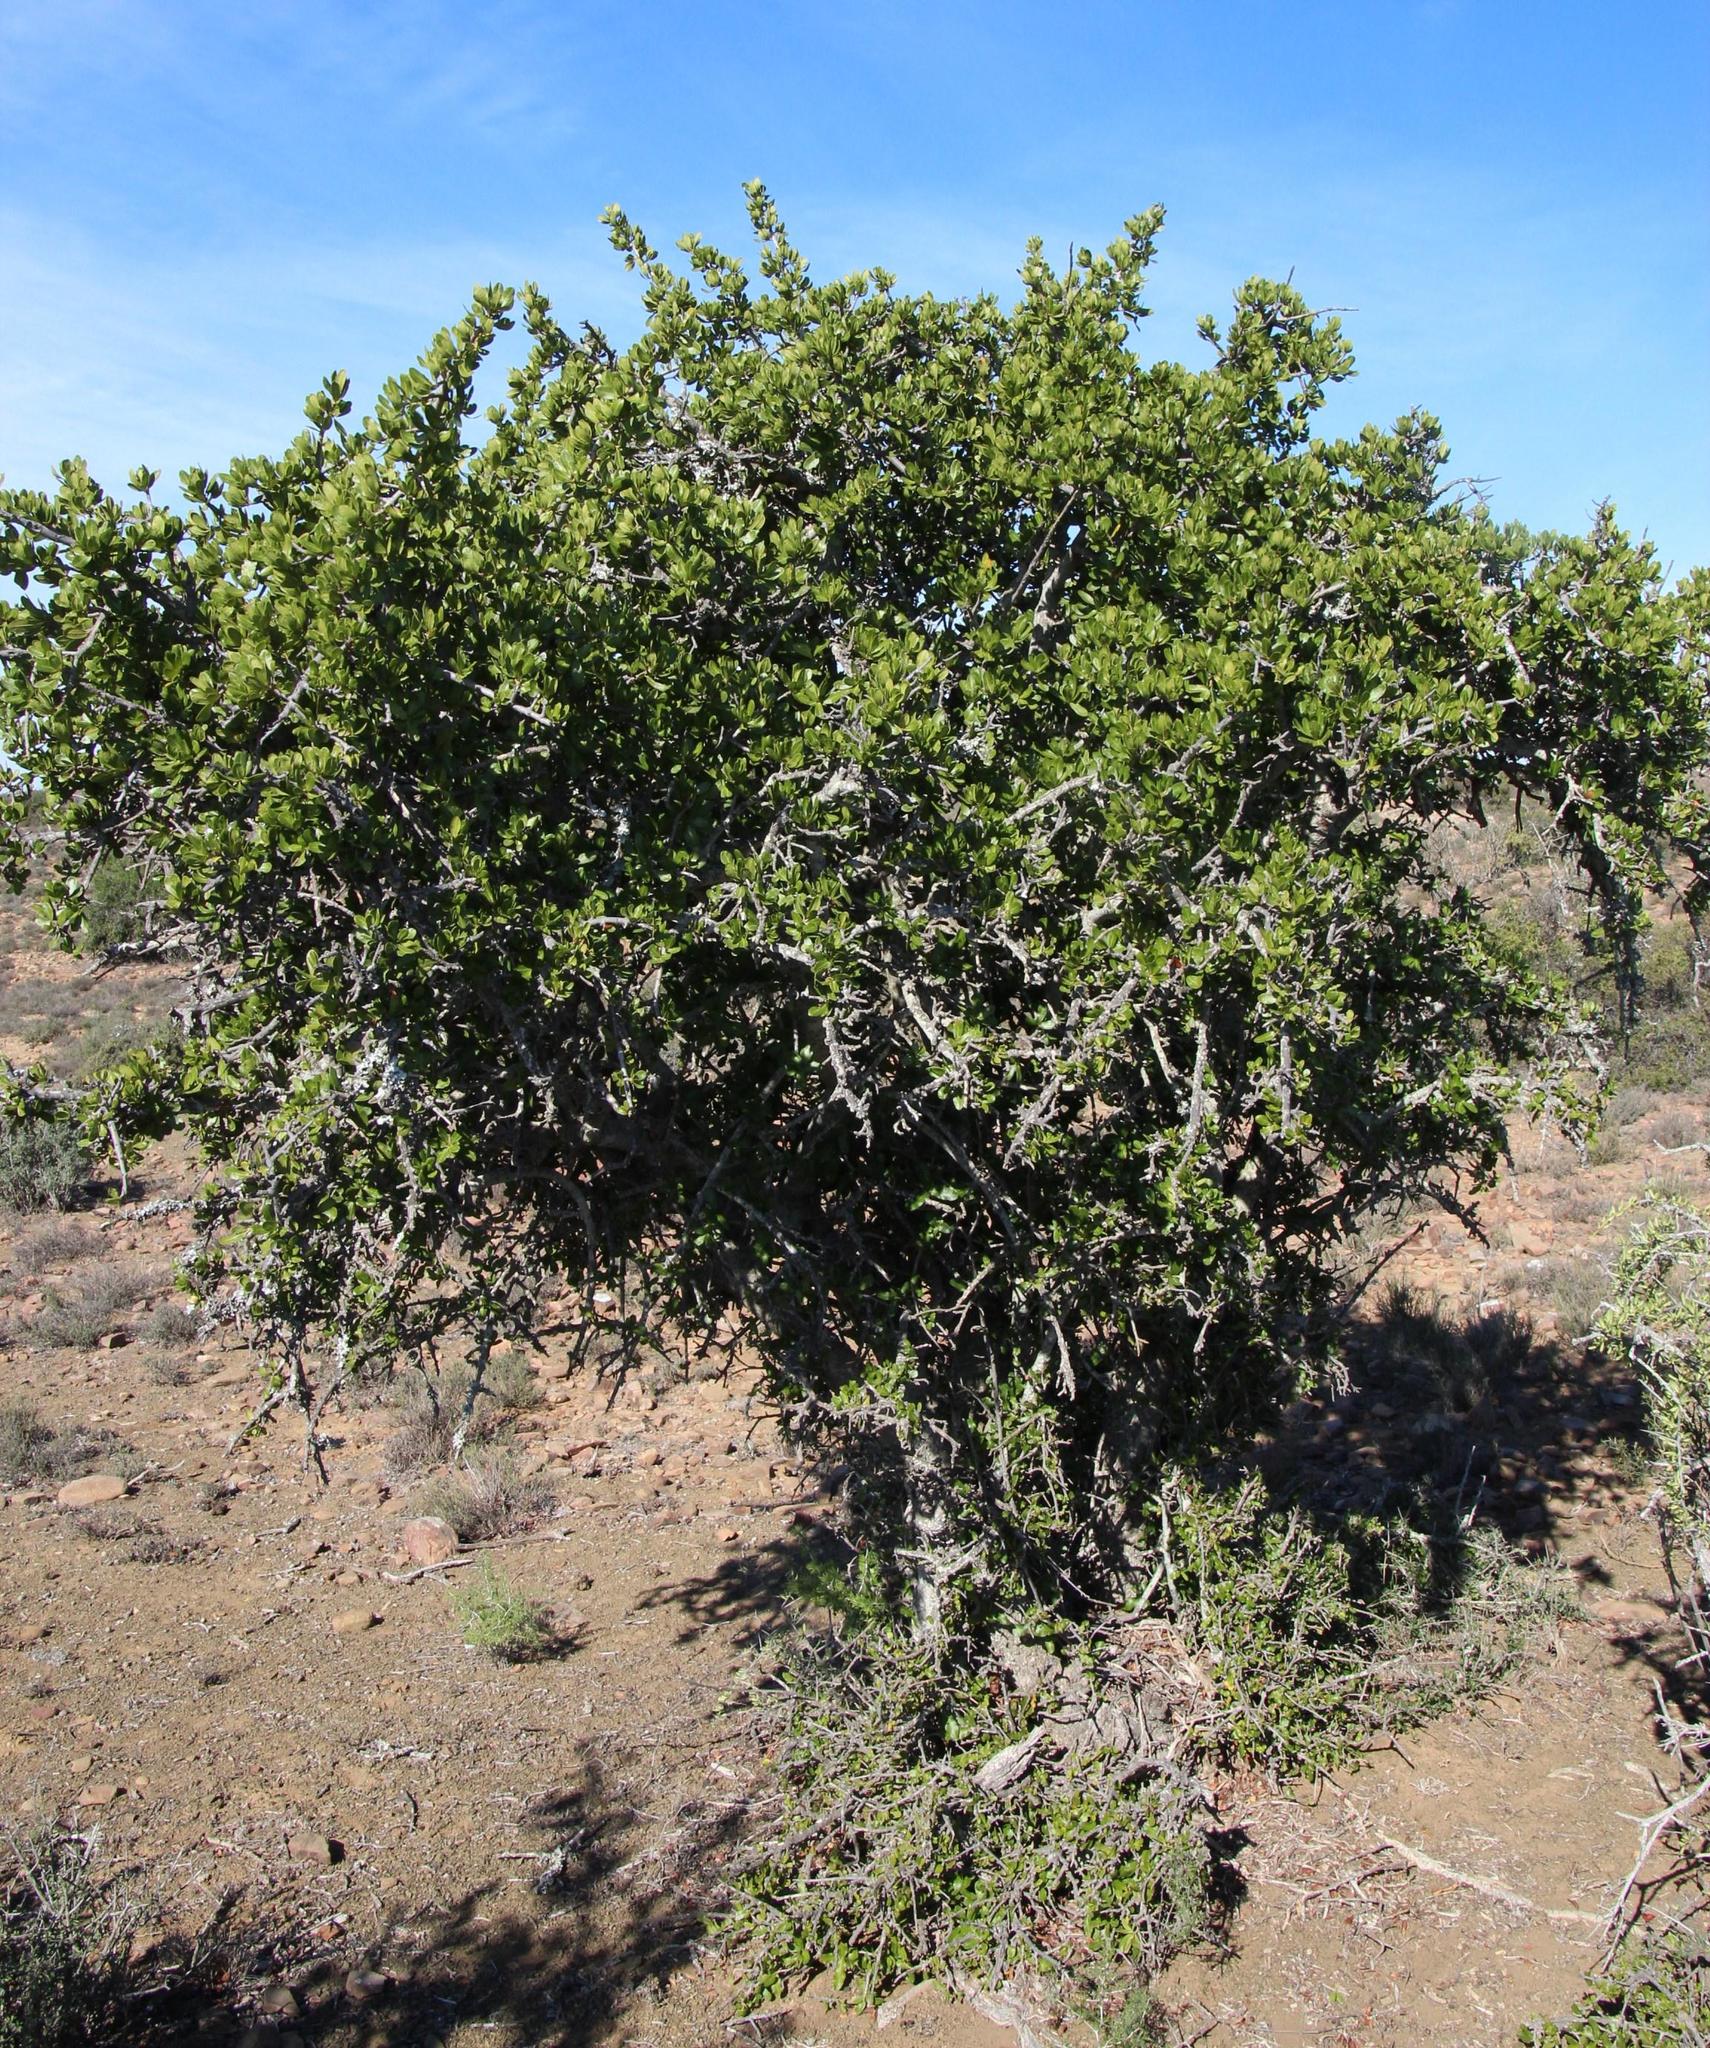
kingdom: Plantae
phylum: Tracheophyta
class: Magnoliopsida
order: Sapindales
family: Sapindaceae
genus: Pappea
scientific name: Pappea capensis
